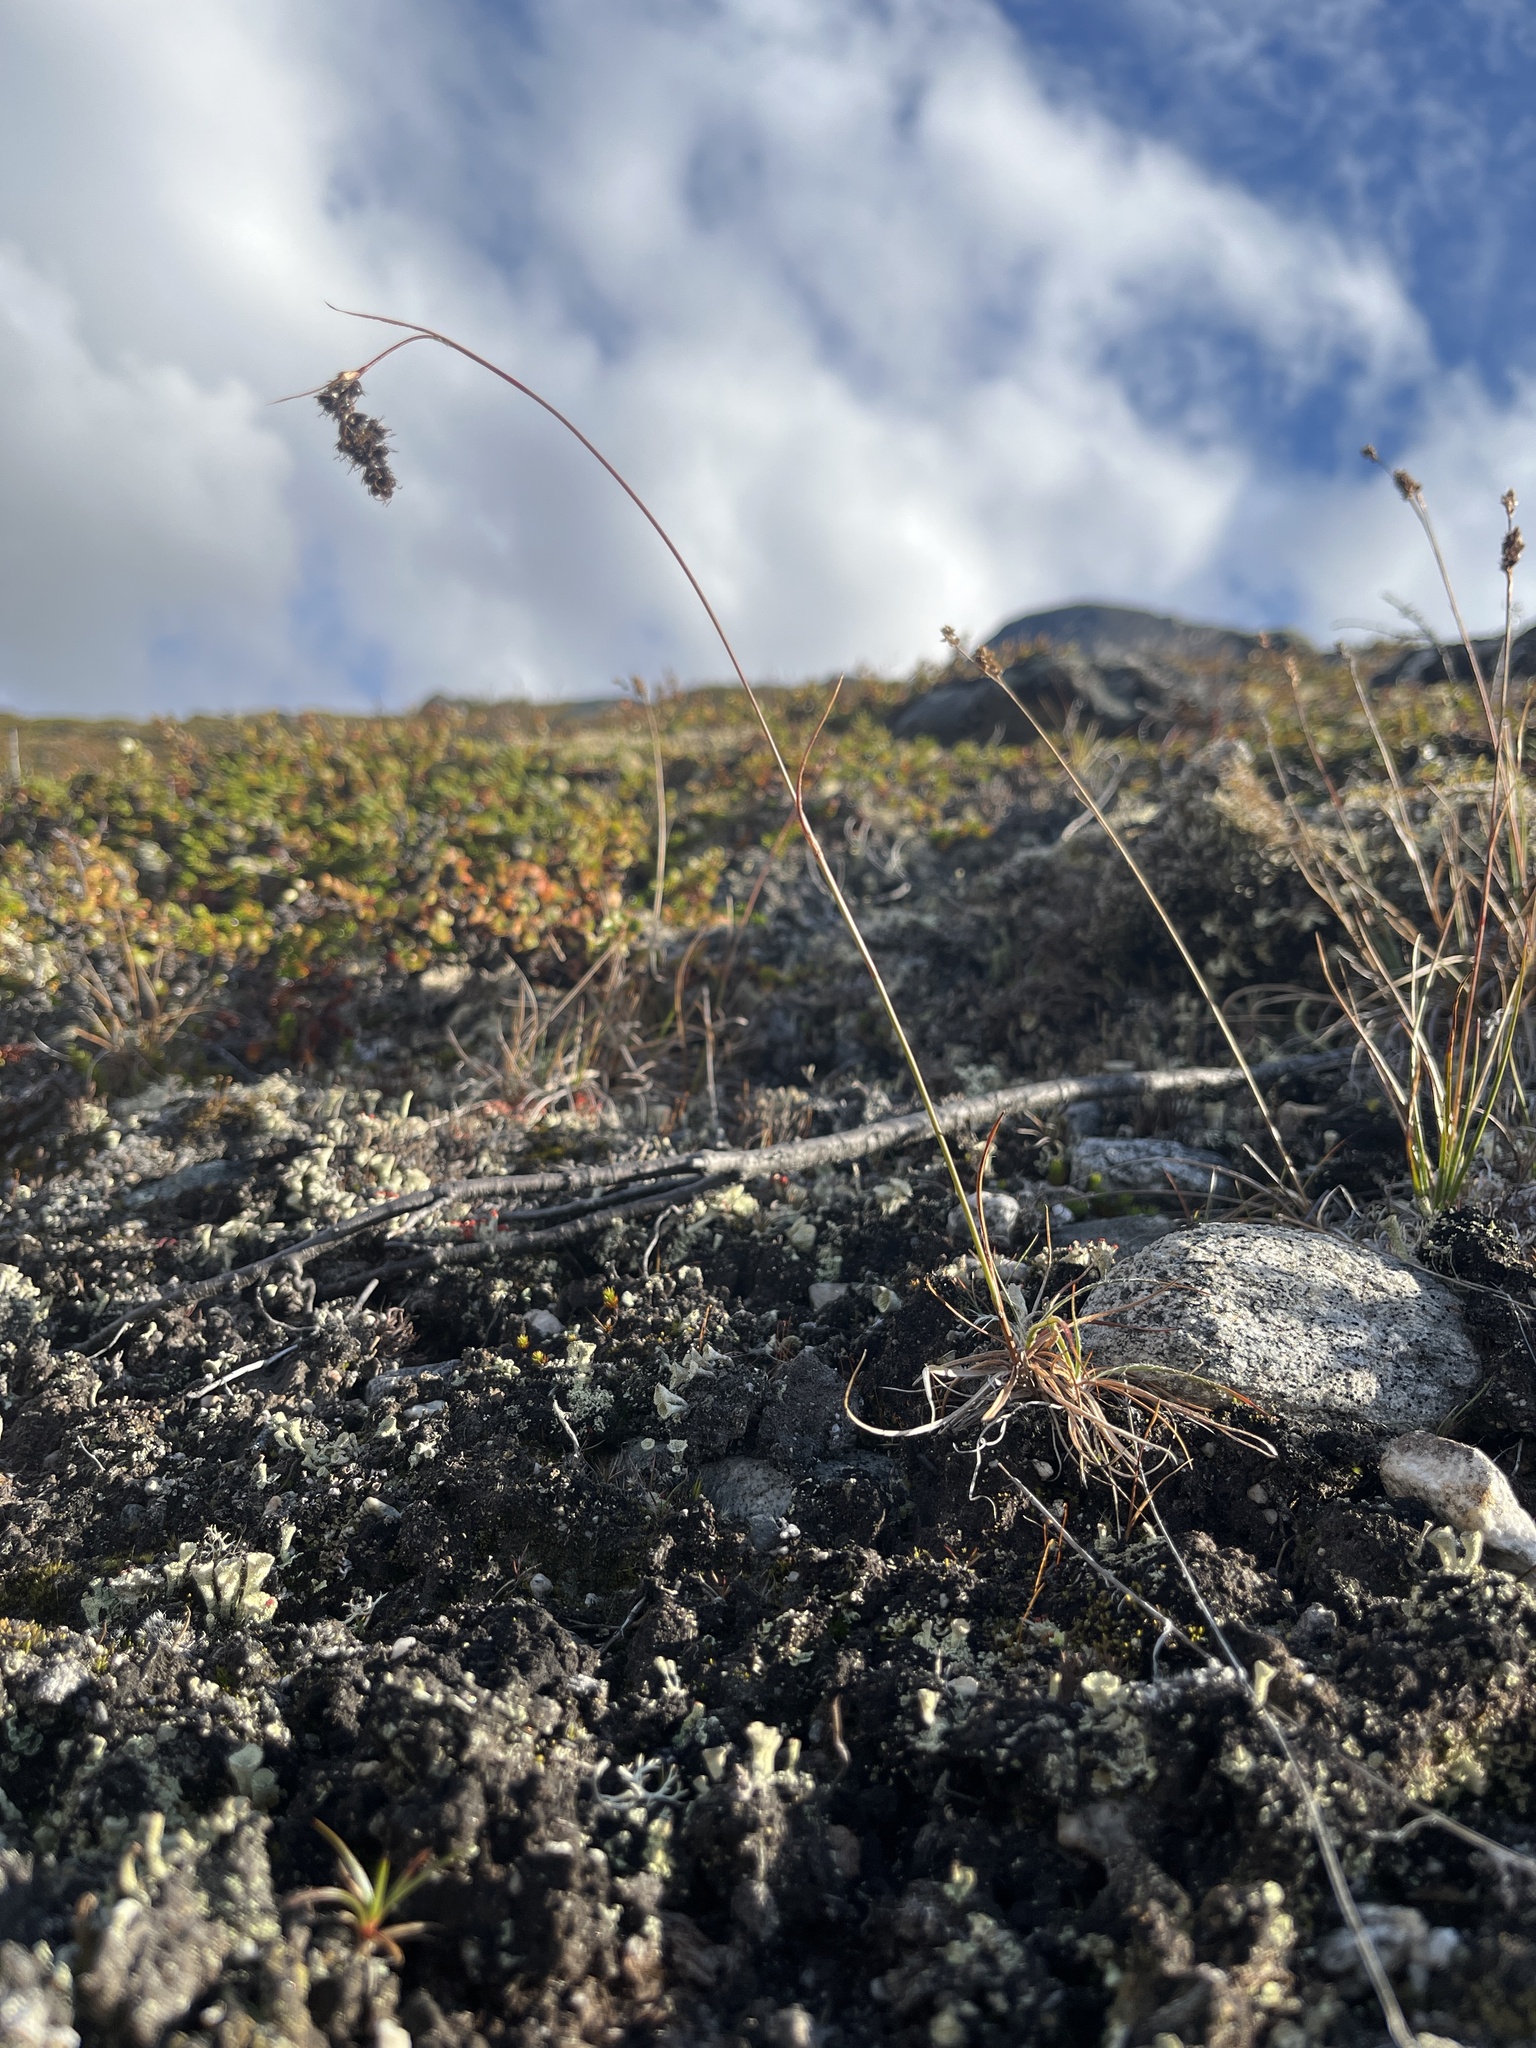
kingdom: Plantae
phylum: Tracheophyta
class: Liliopsida
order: Poales
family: Juncaceae
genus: Luzula
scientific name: Luzula spicata
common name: Spiked wood-rush
